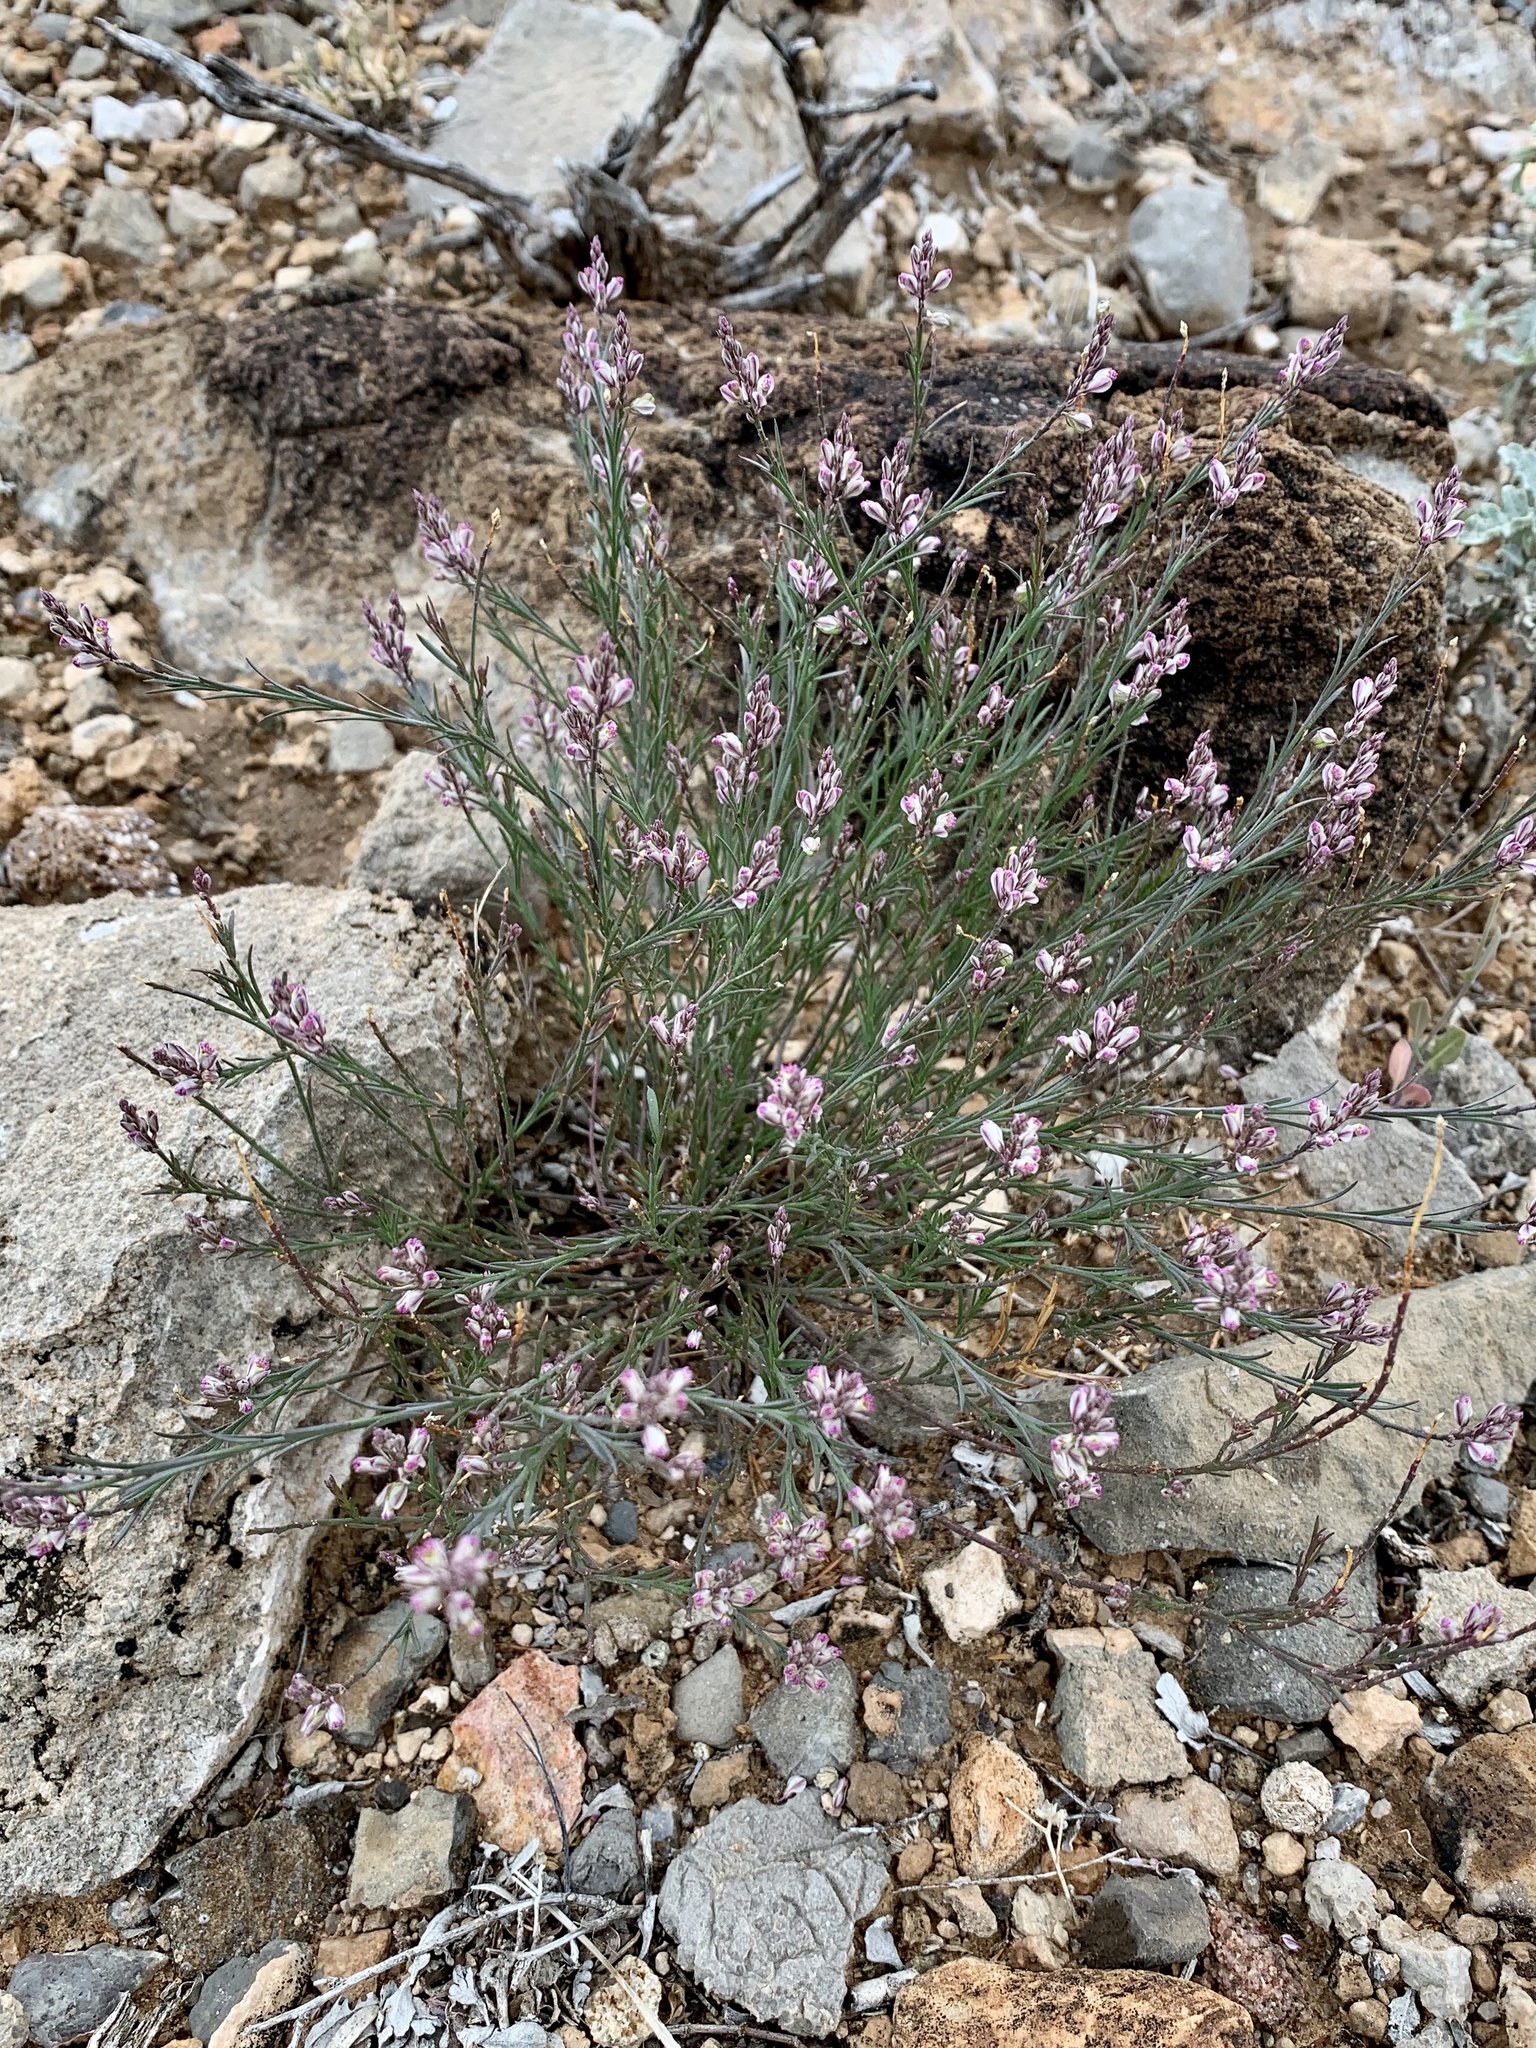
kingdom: Plantae
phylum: Tracheophyta
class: Magnoliopsida
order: Fabales
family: Polygalaceae
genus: Polygala
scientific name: Polygala scoparioides
